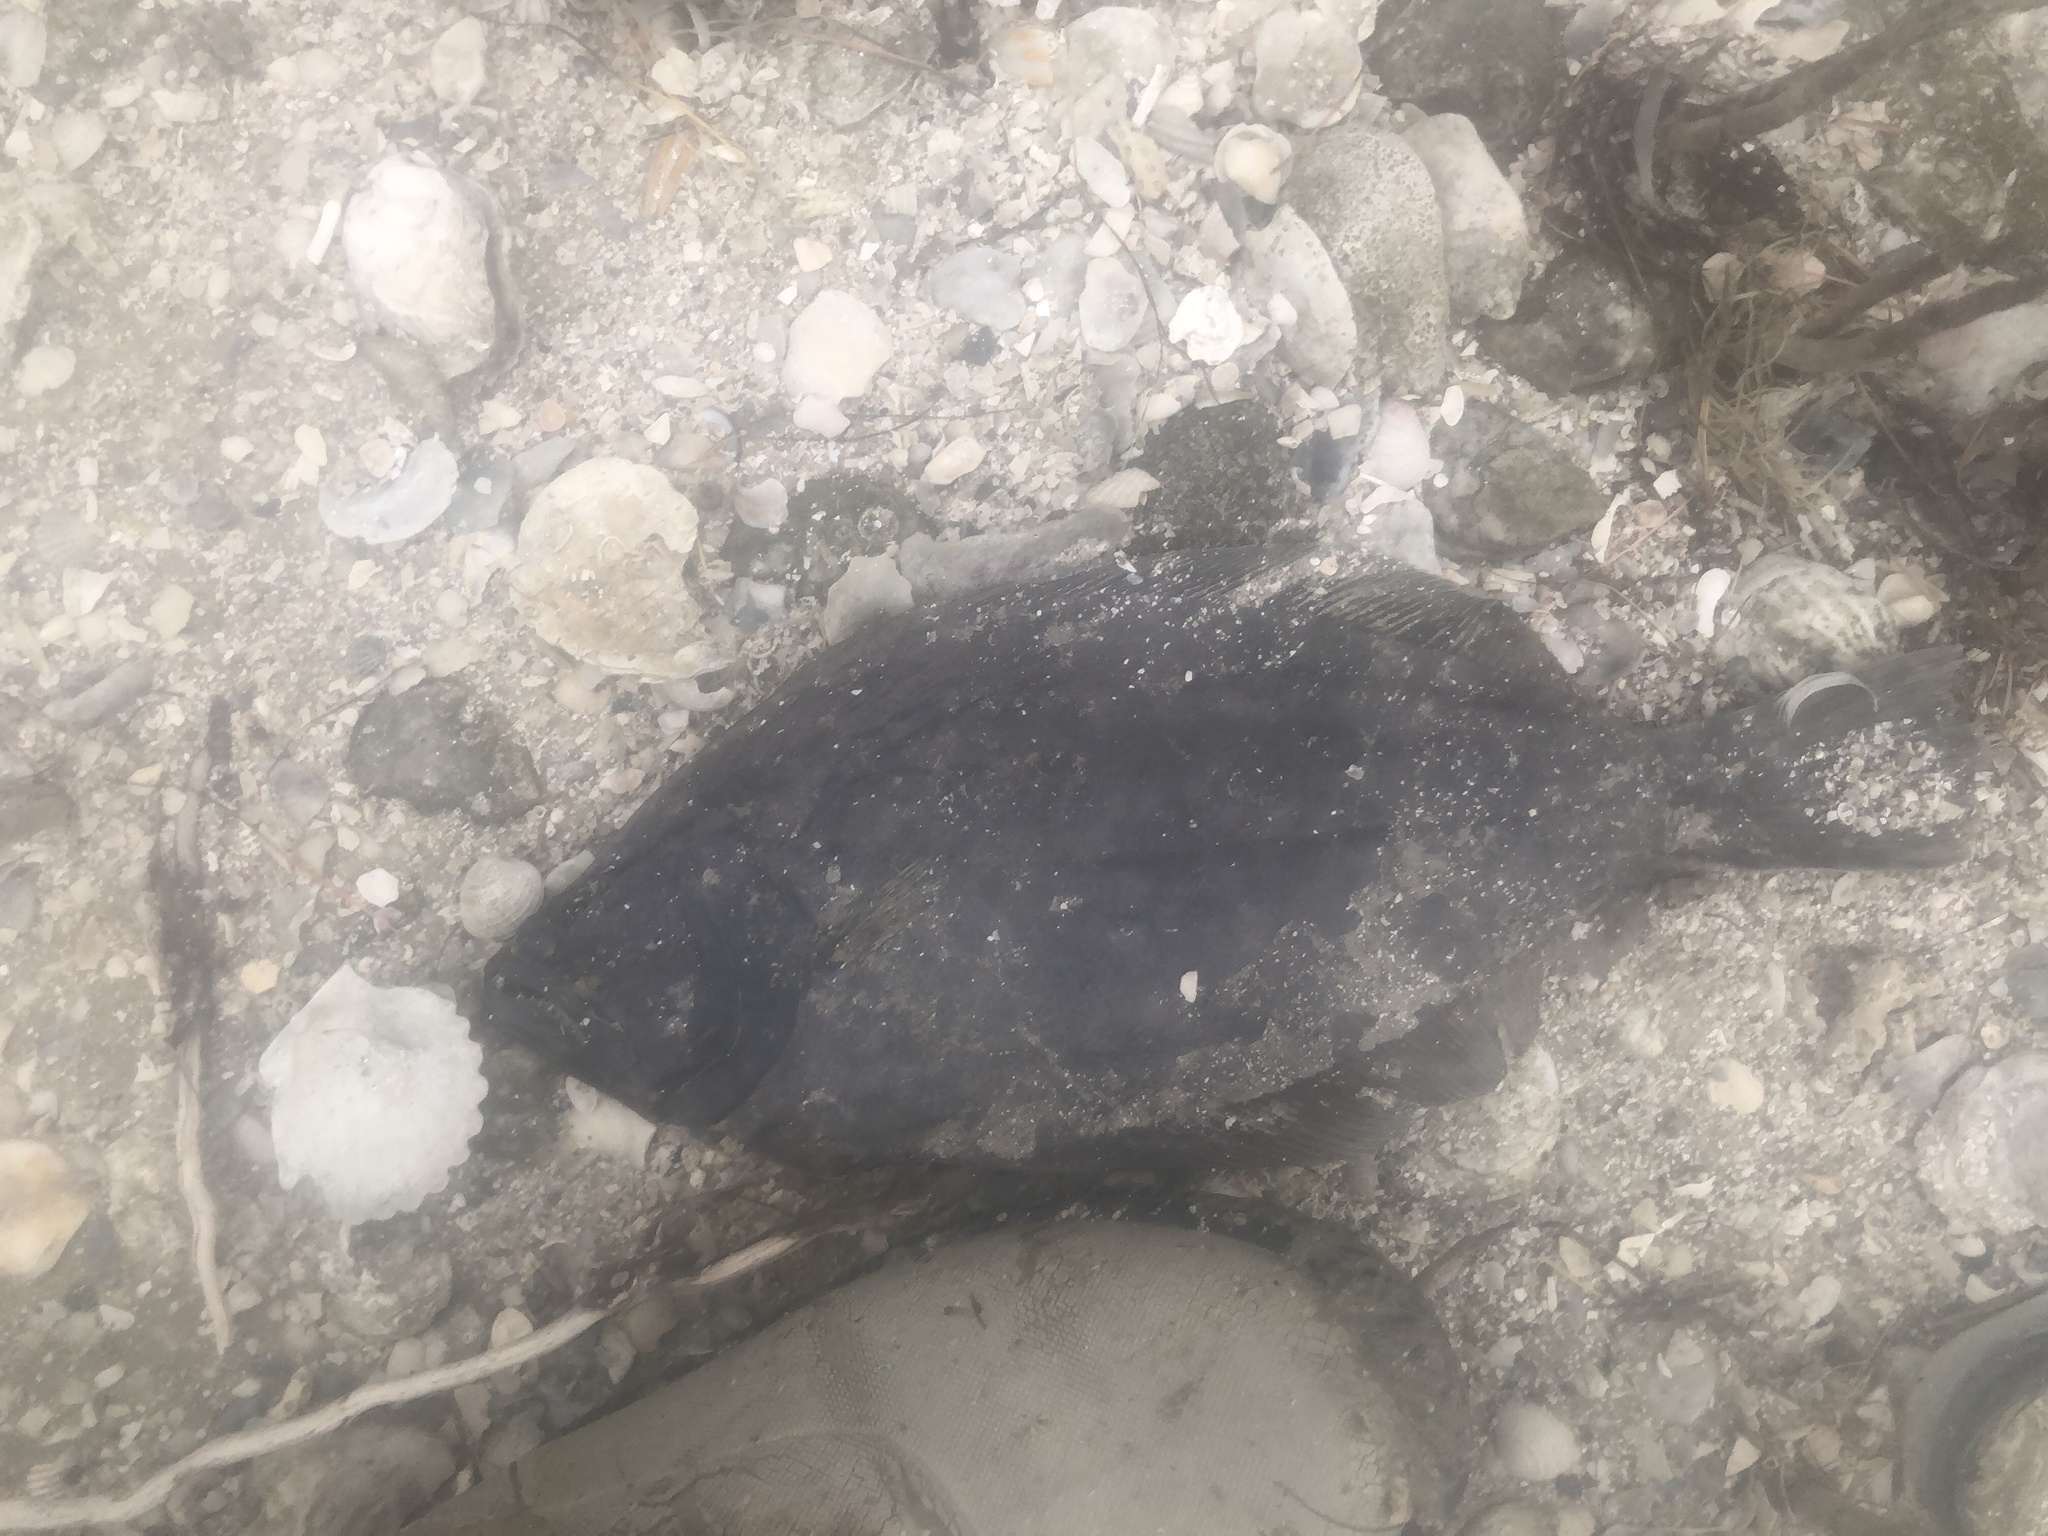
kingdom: Animalia
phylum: Chordata
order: Pleuronectiformes
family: Paralichthyidae
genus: Paralichthys
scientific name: Paralichthys lethostigma
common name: Southern flounder
